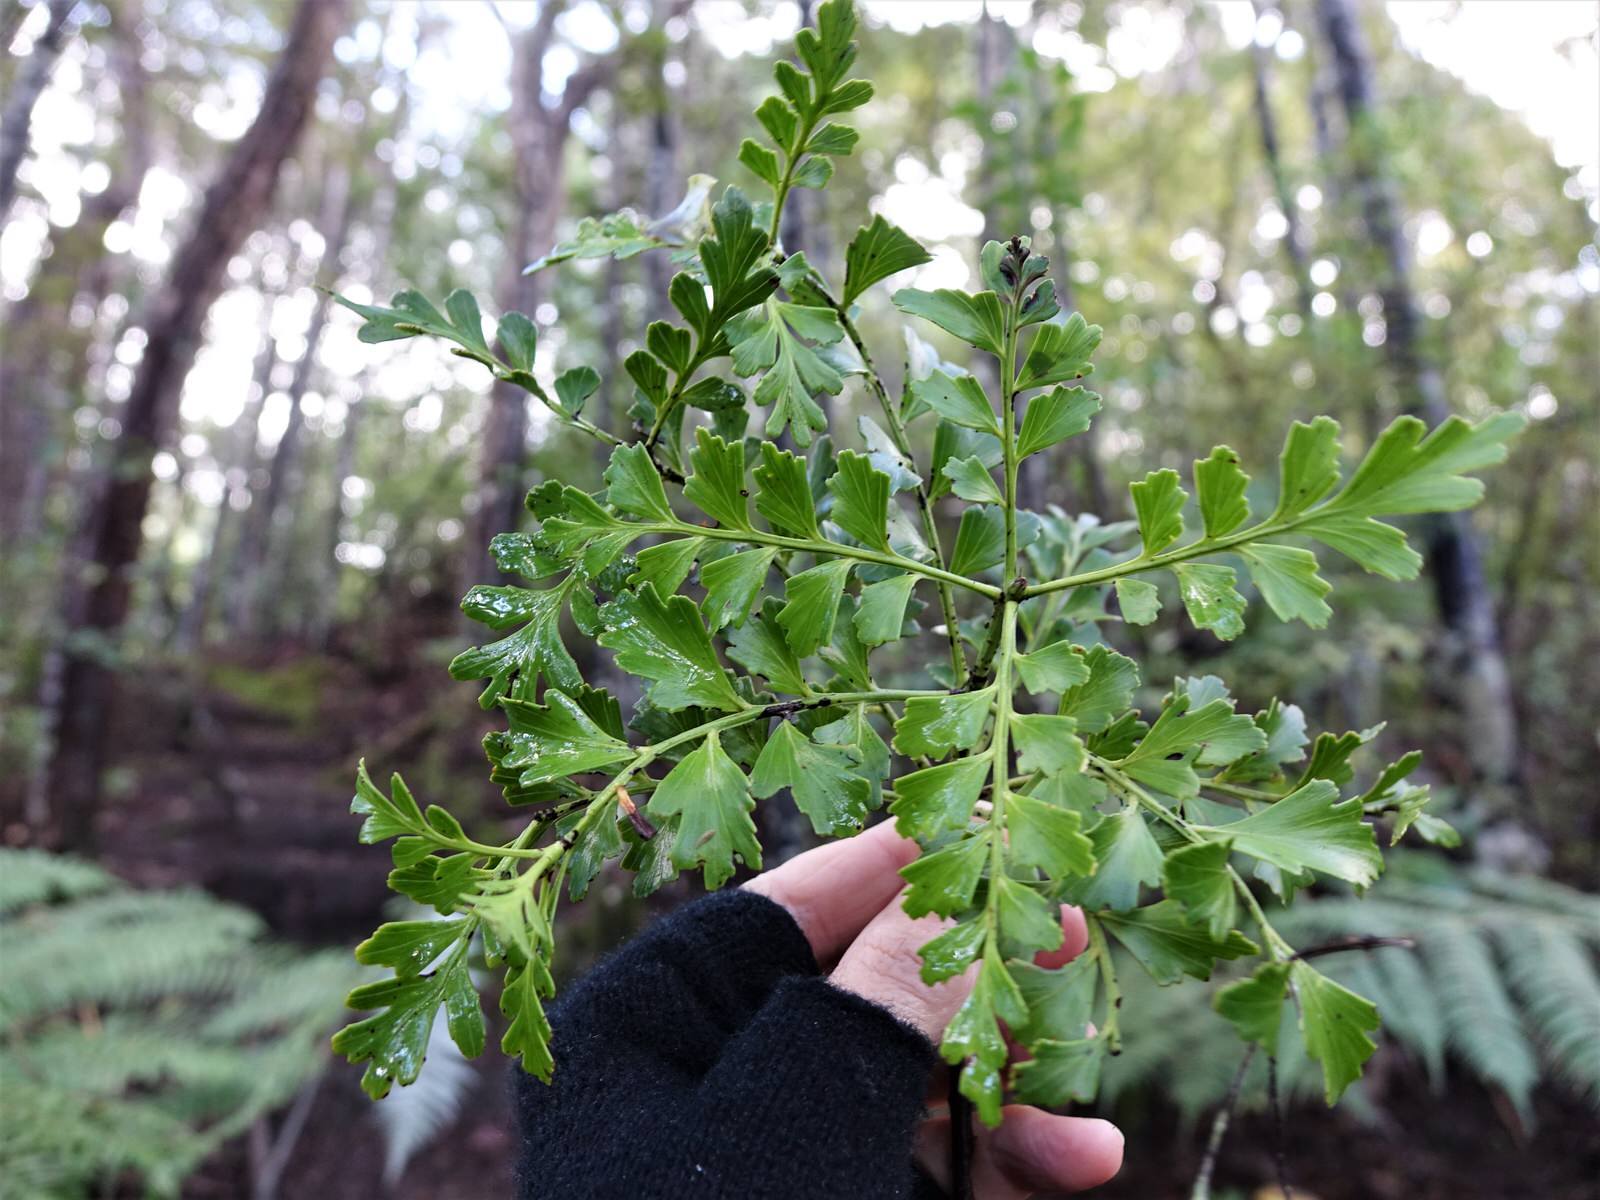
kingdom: Plantae
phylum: Tracheophyta
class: Pinopsida
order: Pinales
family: Phyllocladaceae
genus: Phyllocladus
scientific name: Phyllocladus trichomanoides
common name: Celery pine
